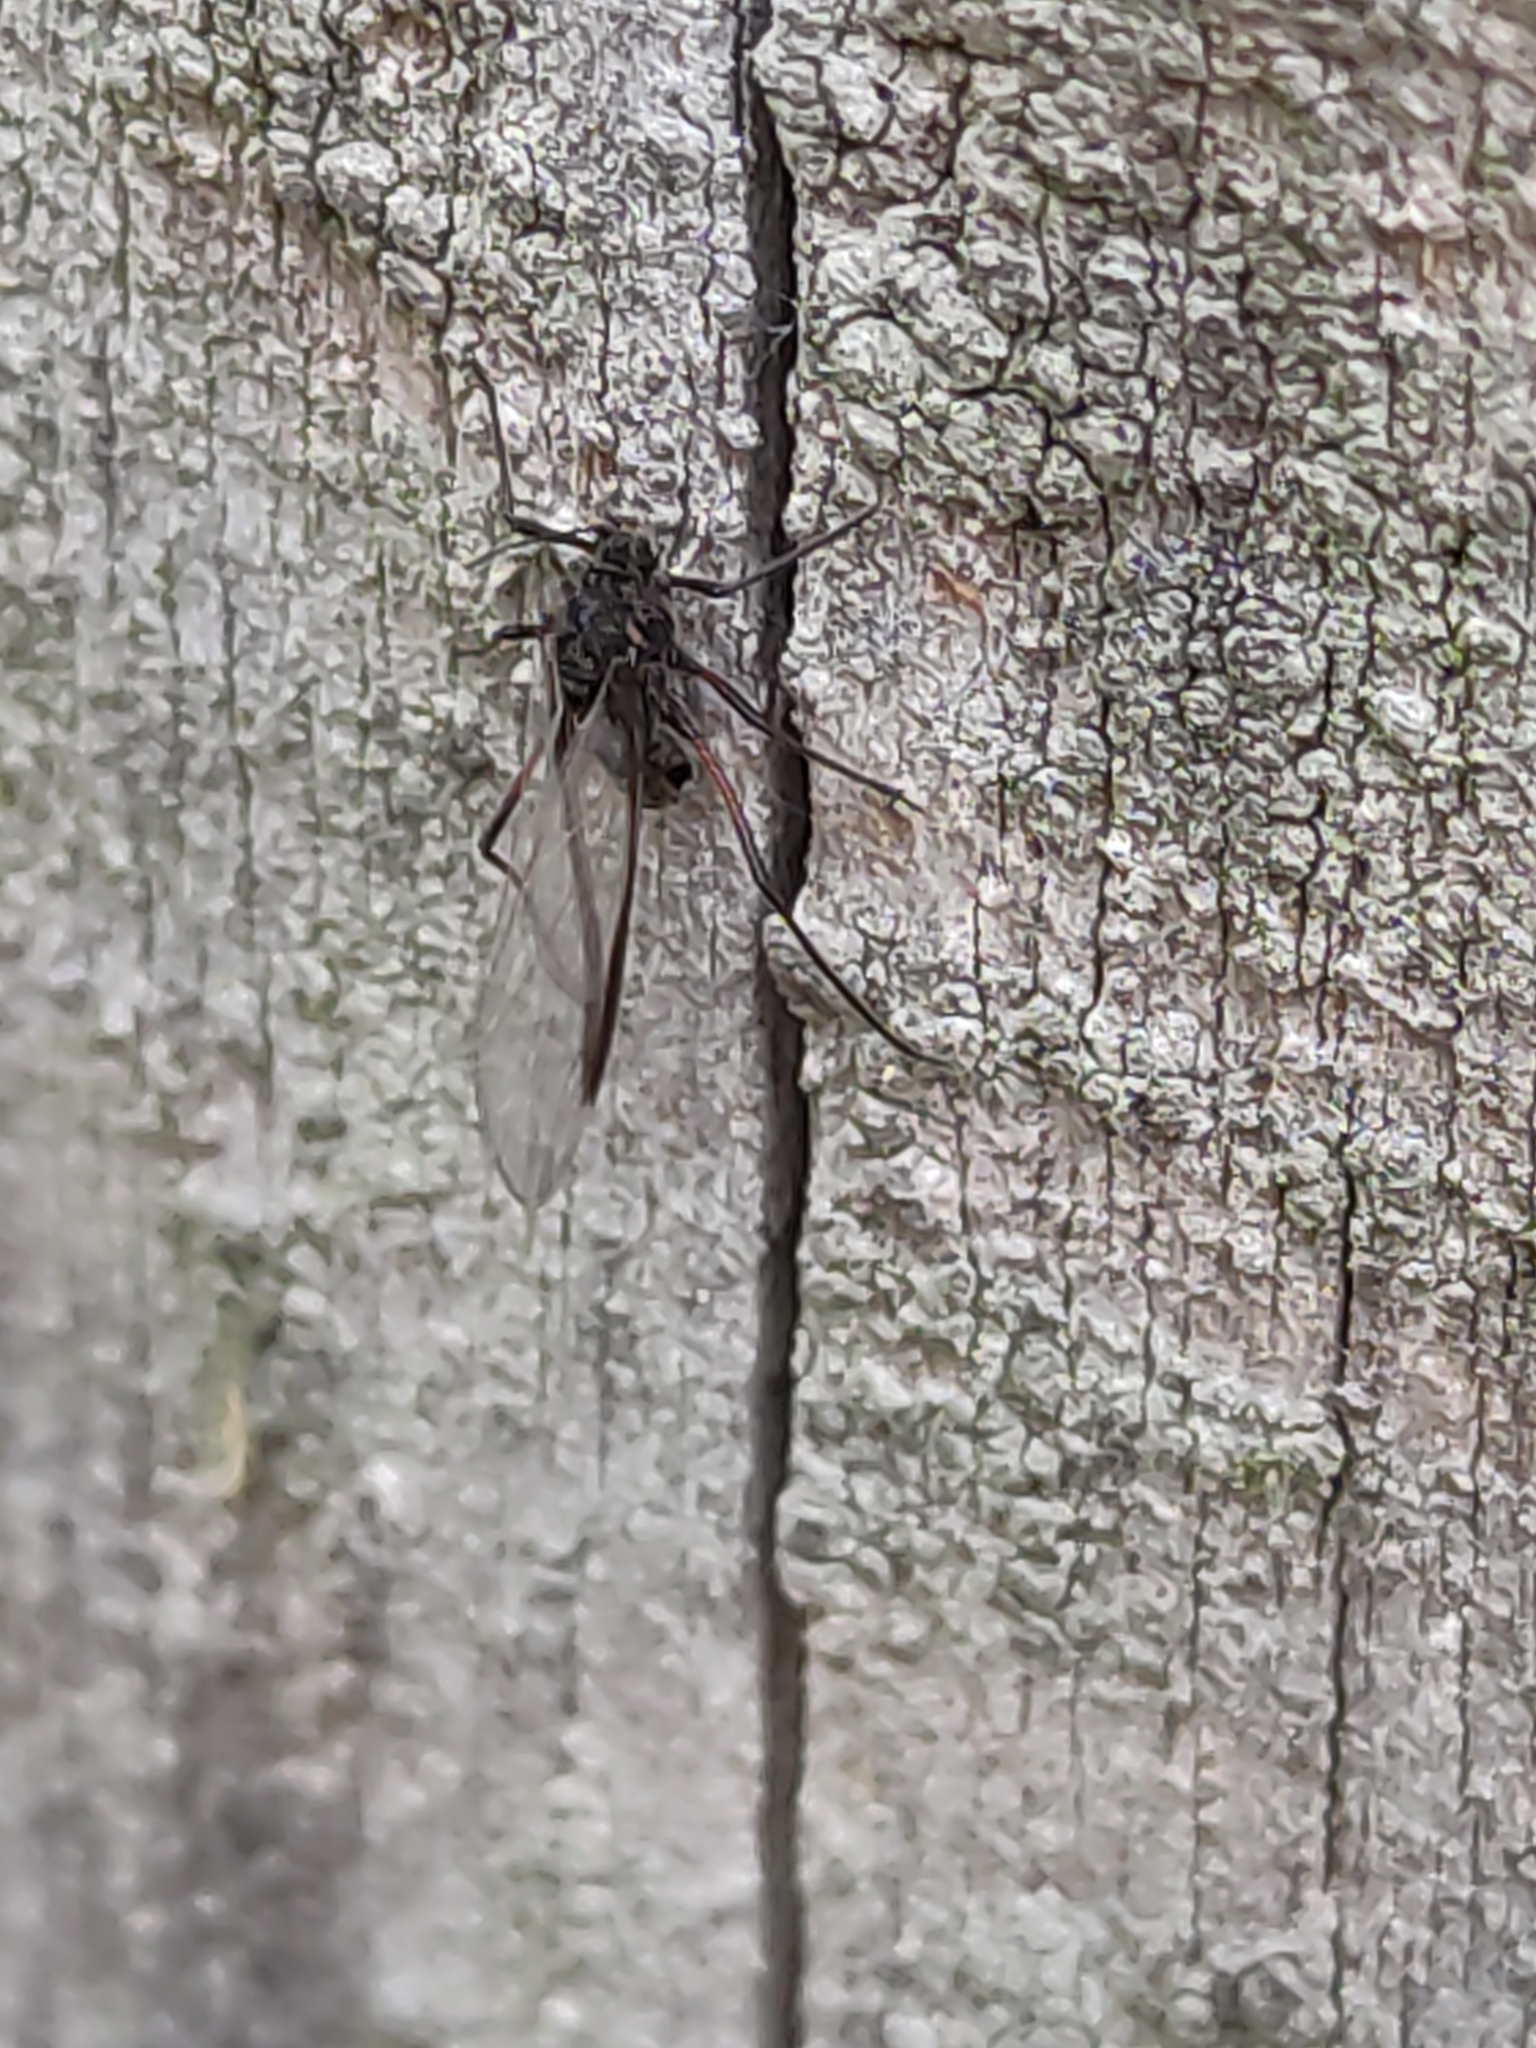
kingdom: Animalia
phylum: Arthropoda
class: Insecta
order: Hemiptera
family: Aphididae
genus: Tuberolachnus
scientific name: Tuberolachnus salignus
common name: Giant willow aphid
